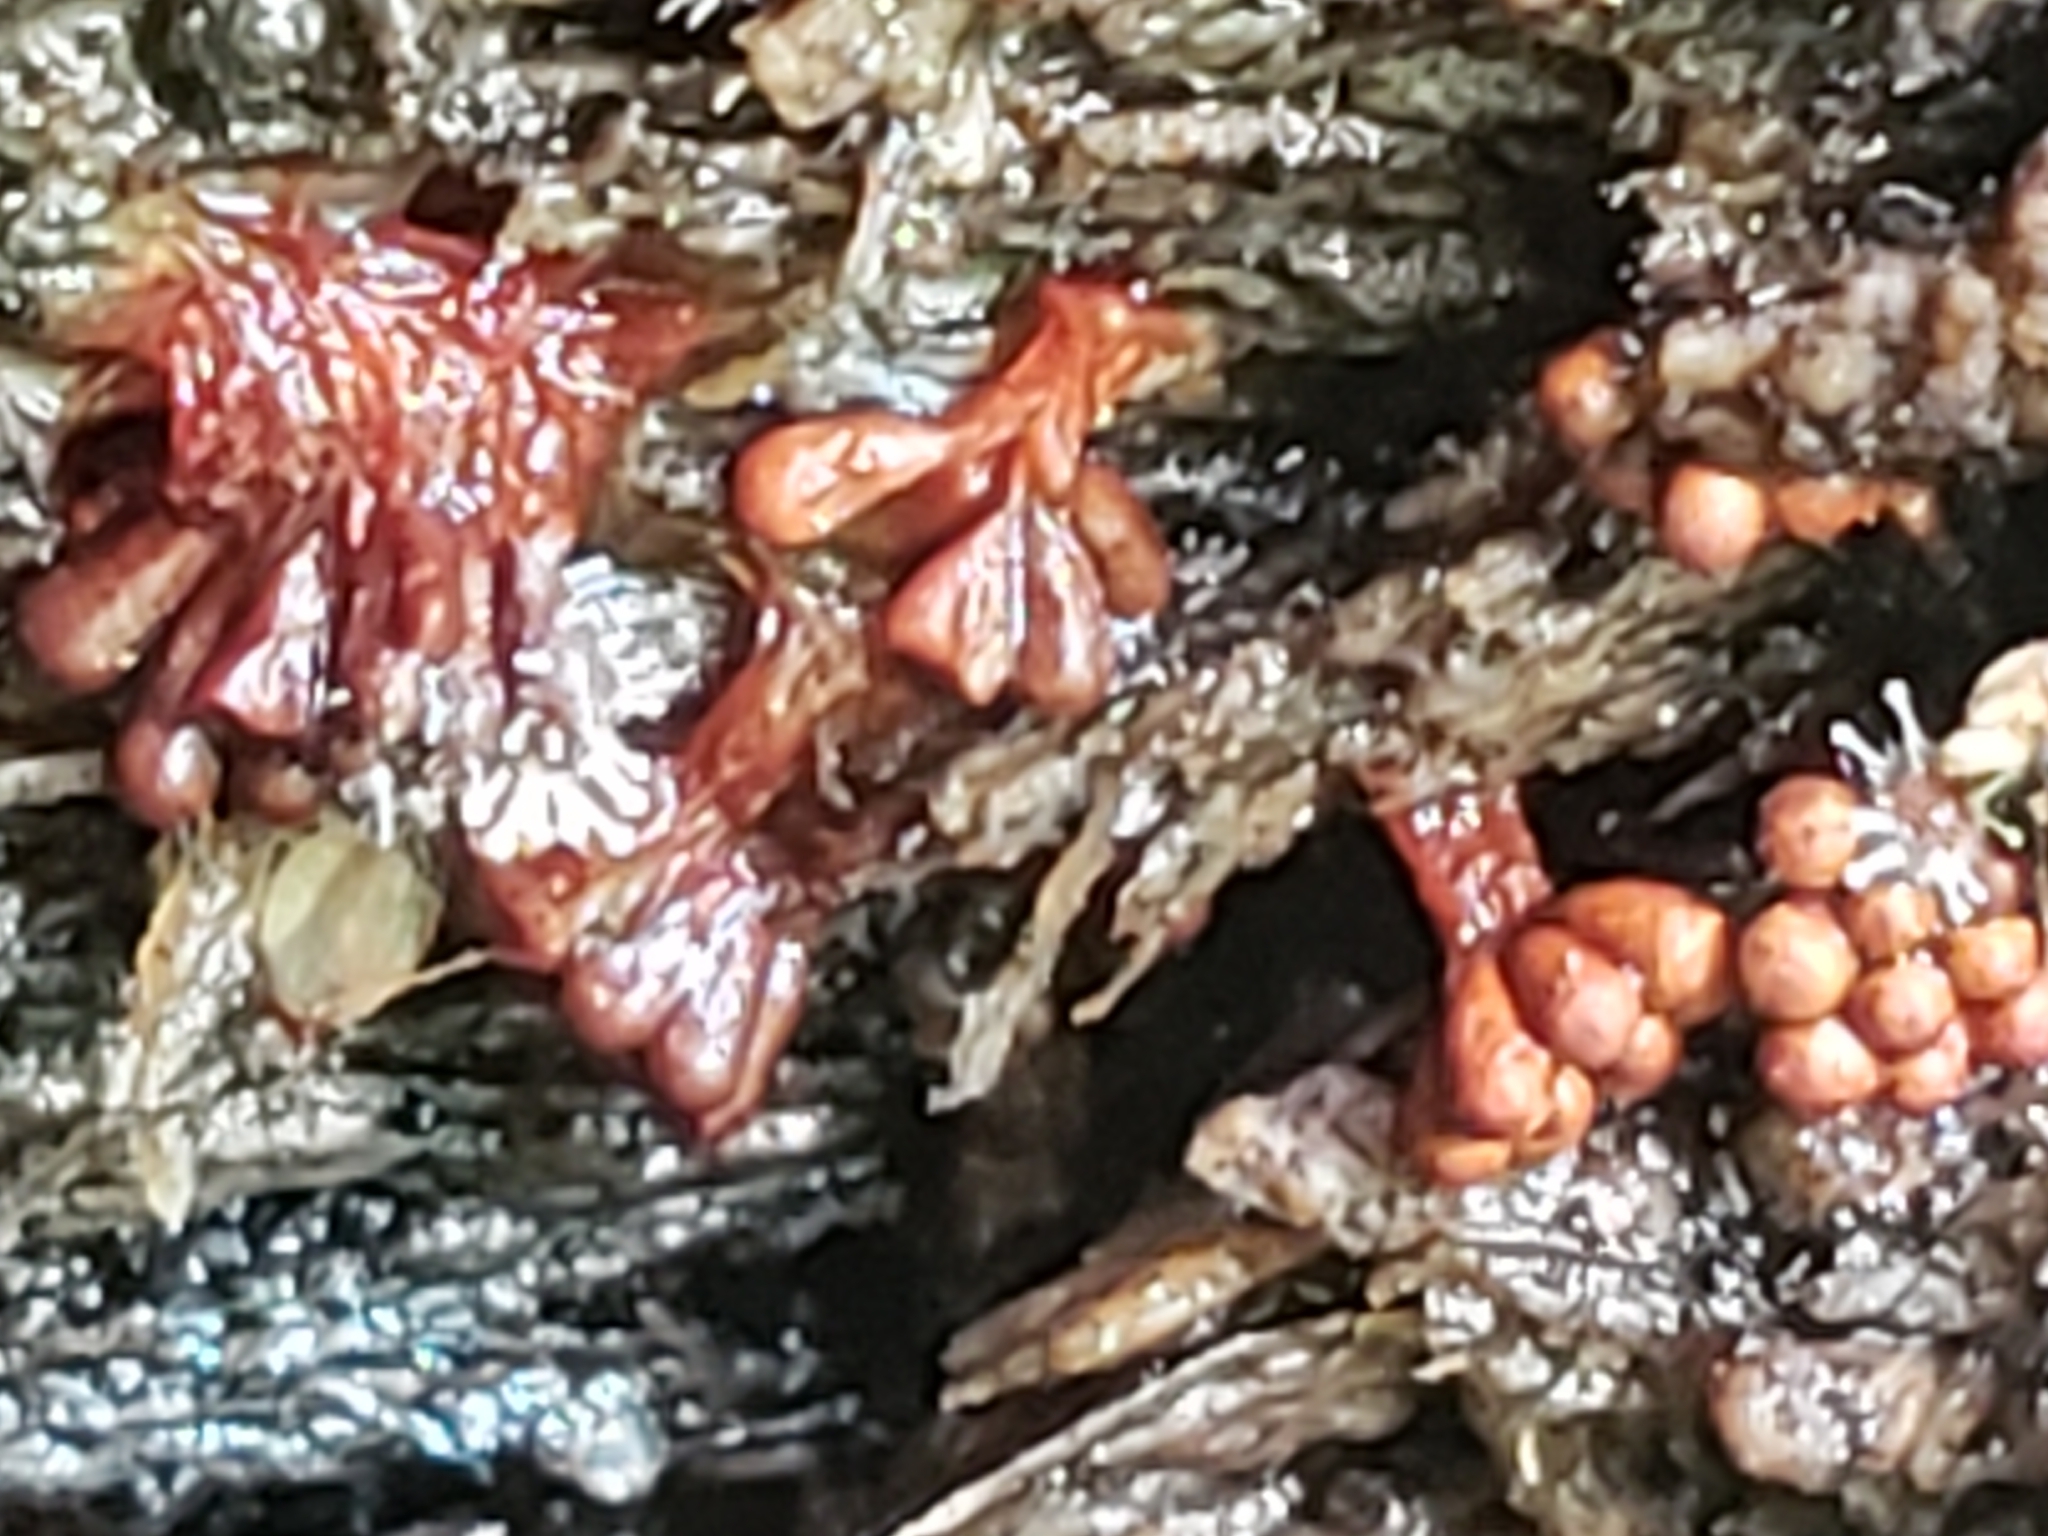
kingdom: Fungi
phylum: Ascomycota
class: Sordariomycetes
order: Hypocreales
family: Ophiocordycipitaceae
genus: Polycephalomyces
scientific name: Polycephalomyces tomentosus
